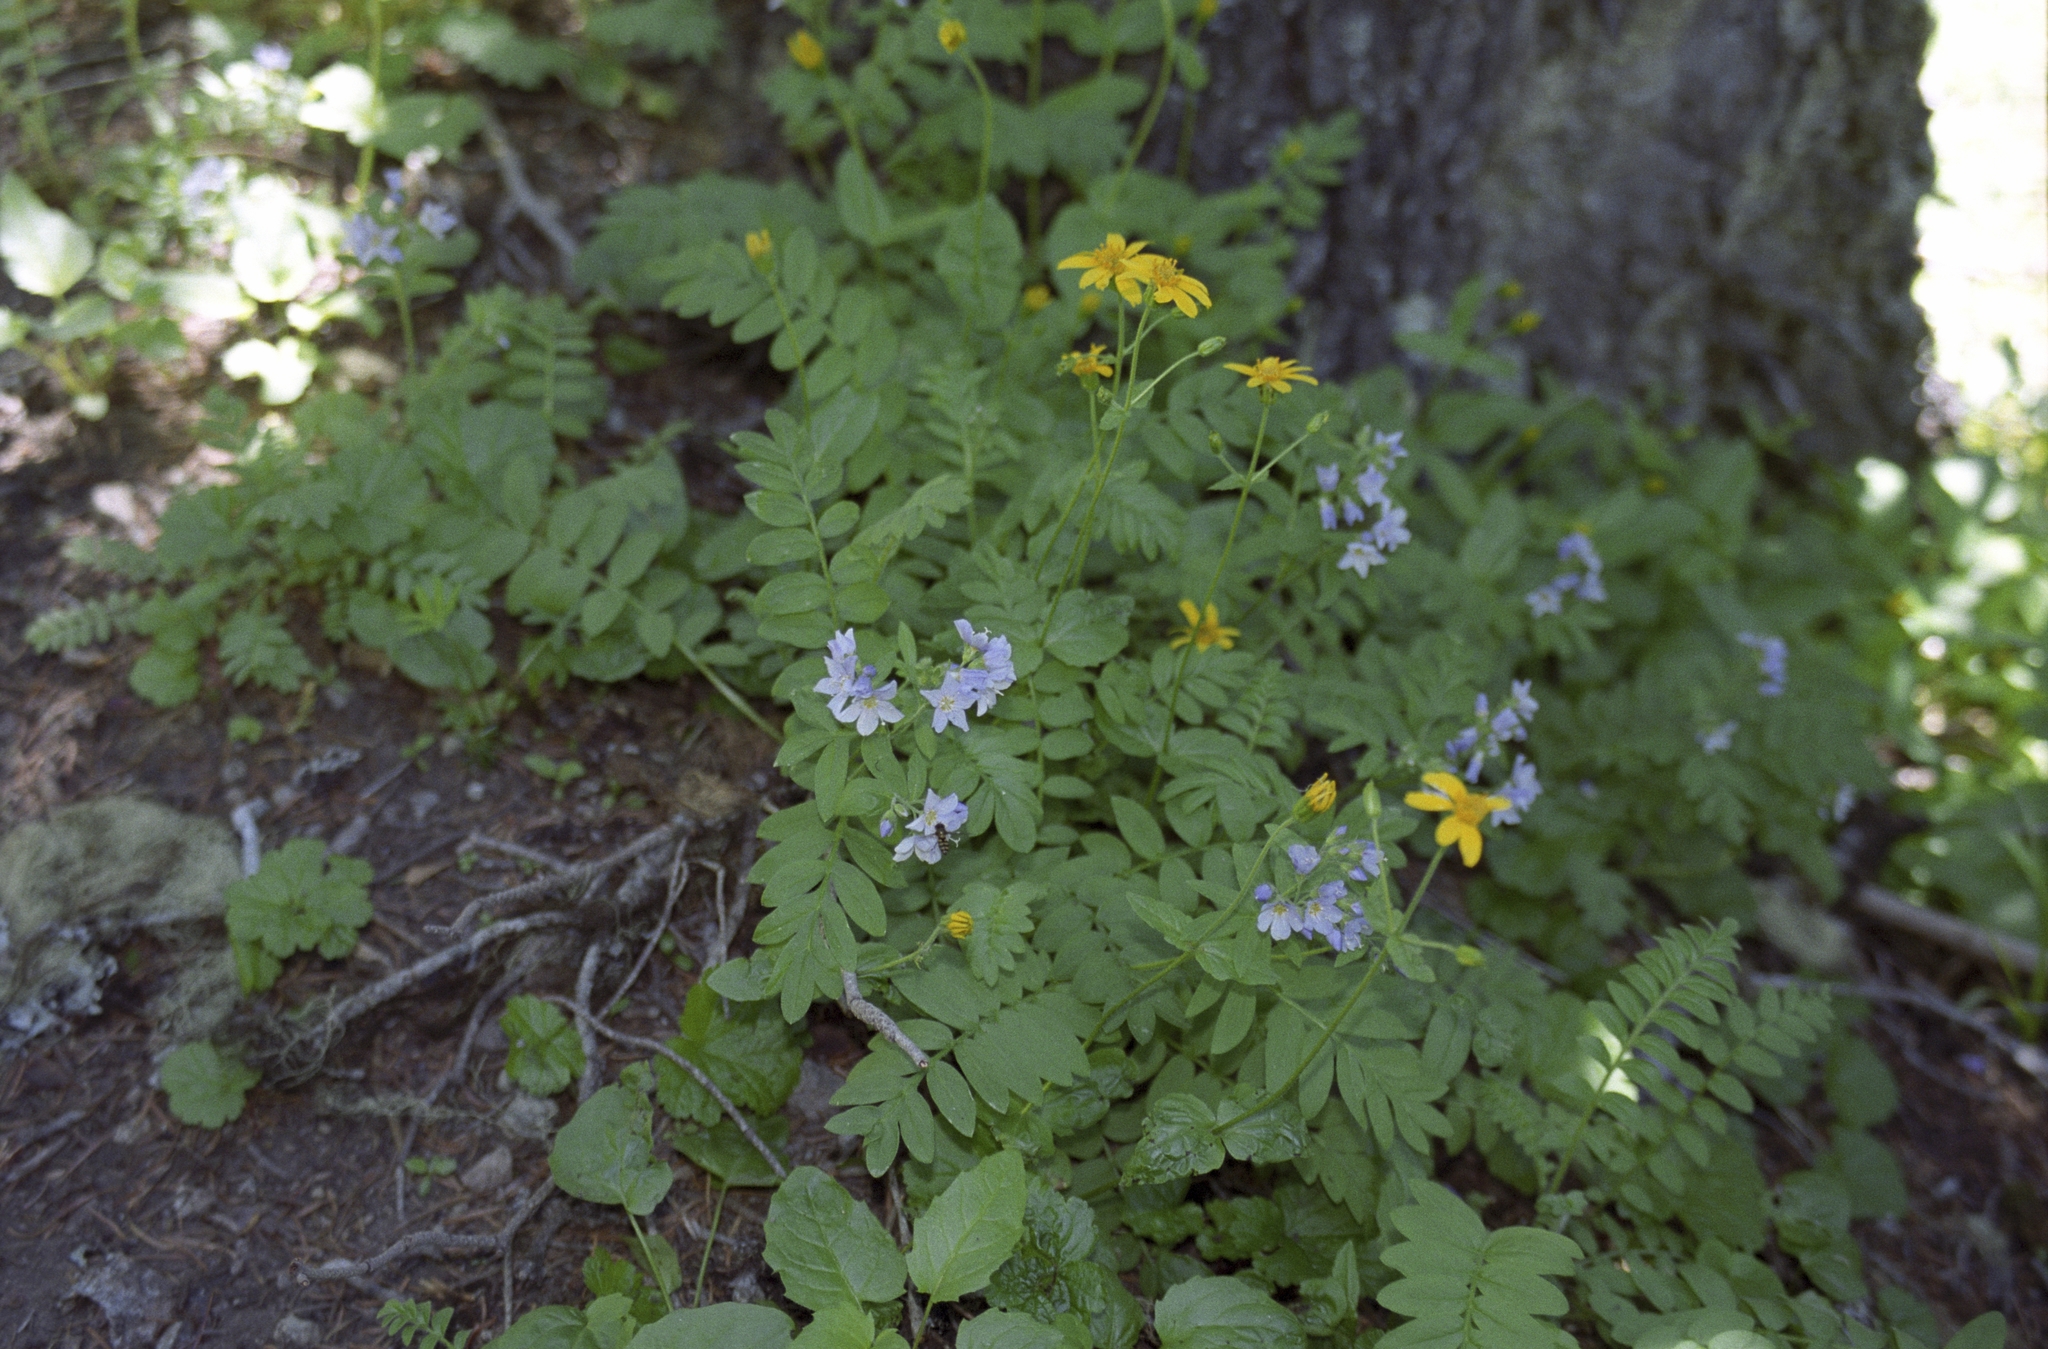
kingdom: Plantae
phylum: Tracheophyta
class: Magnoliopsida
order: Ericales
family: Polemoniaceae
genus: Polemonium
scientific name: Polemonium californicum
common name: California jacob's ladder
